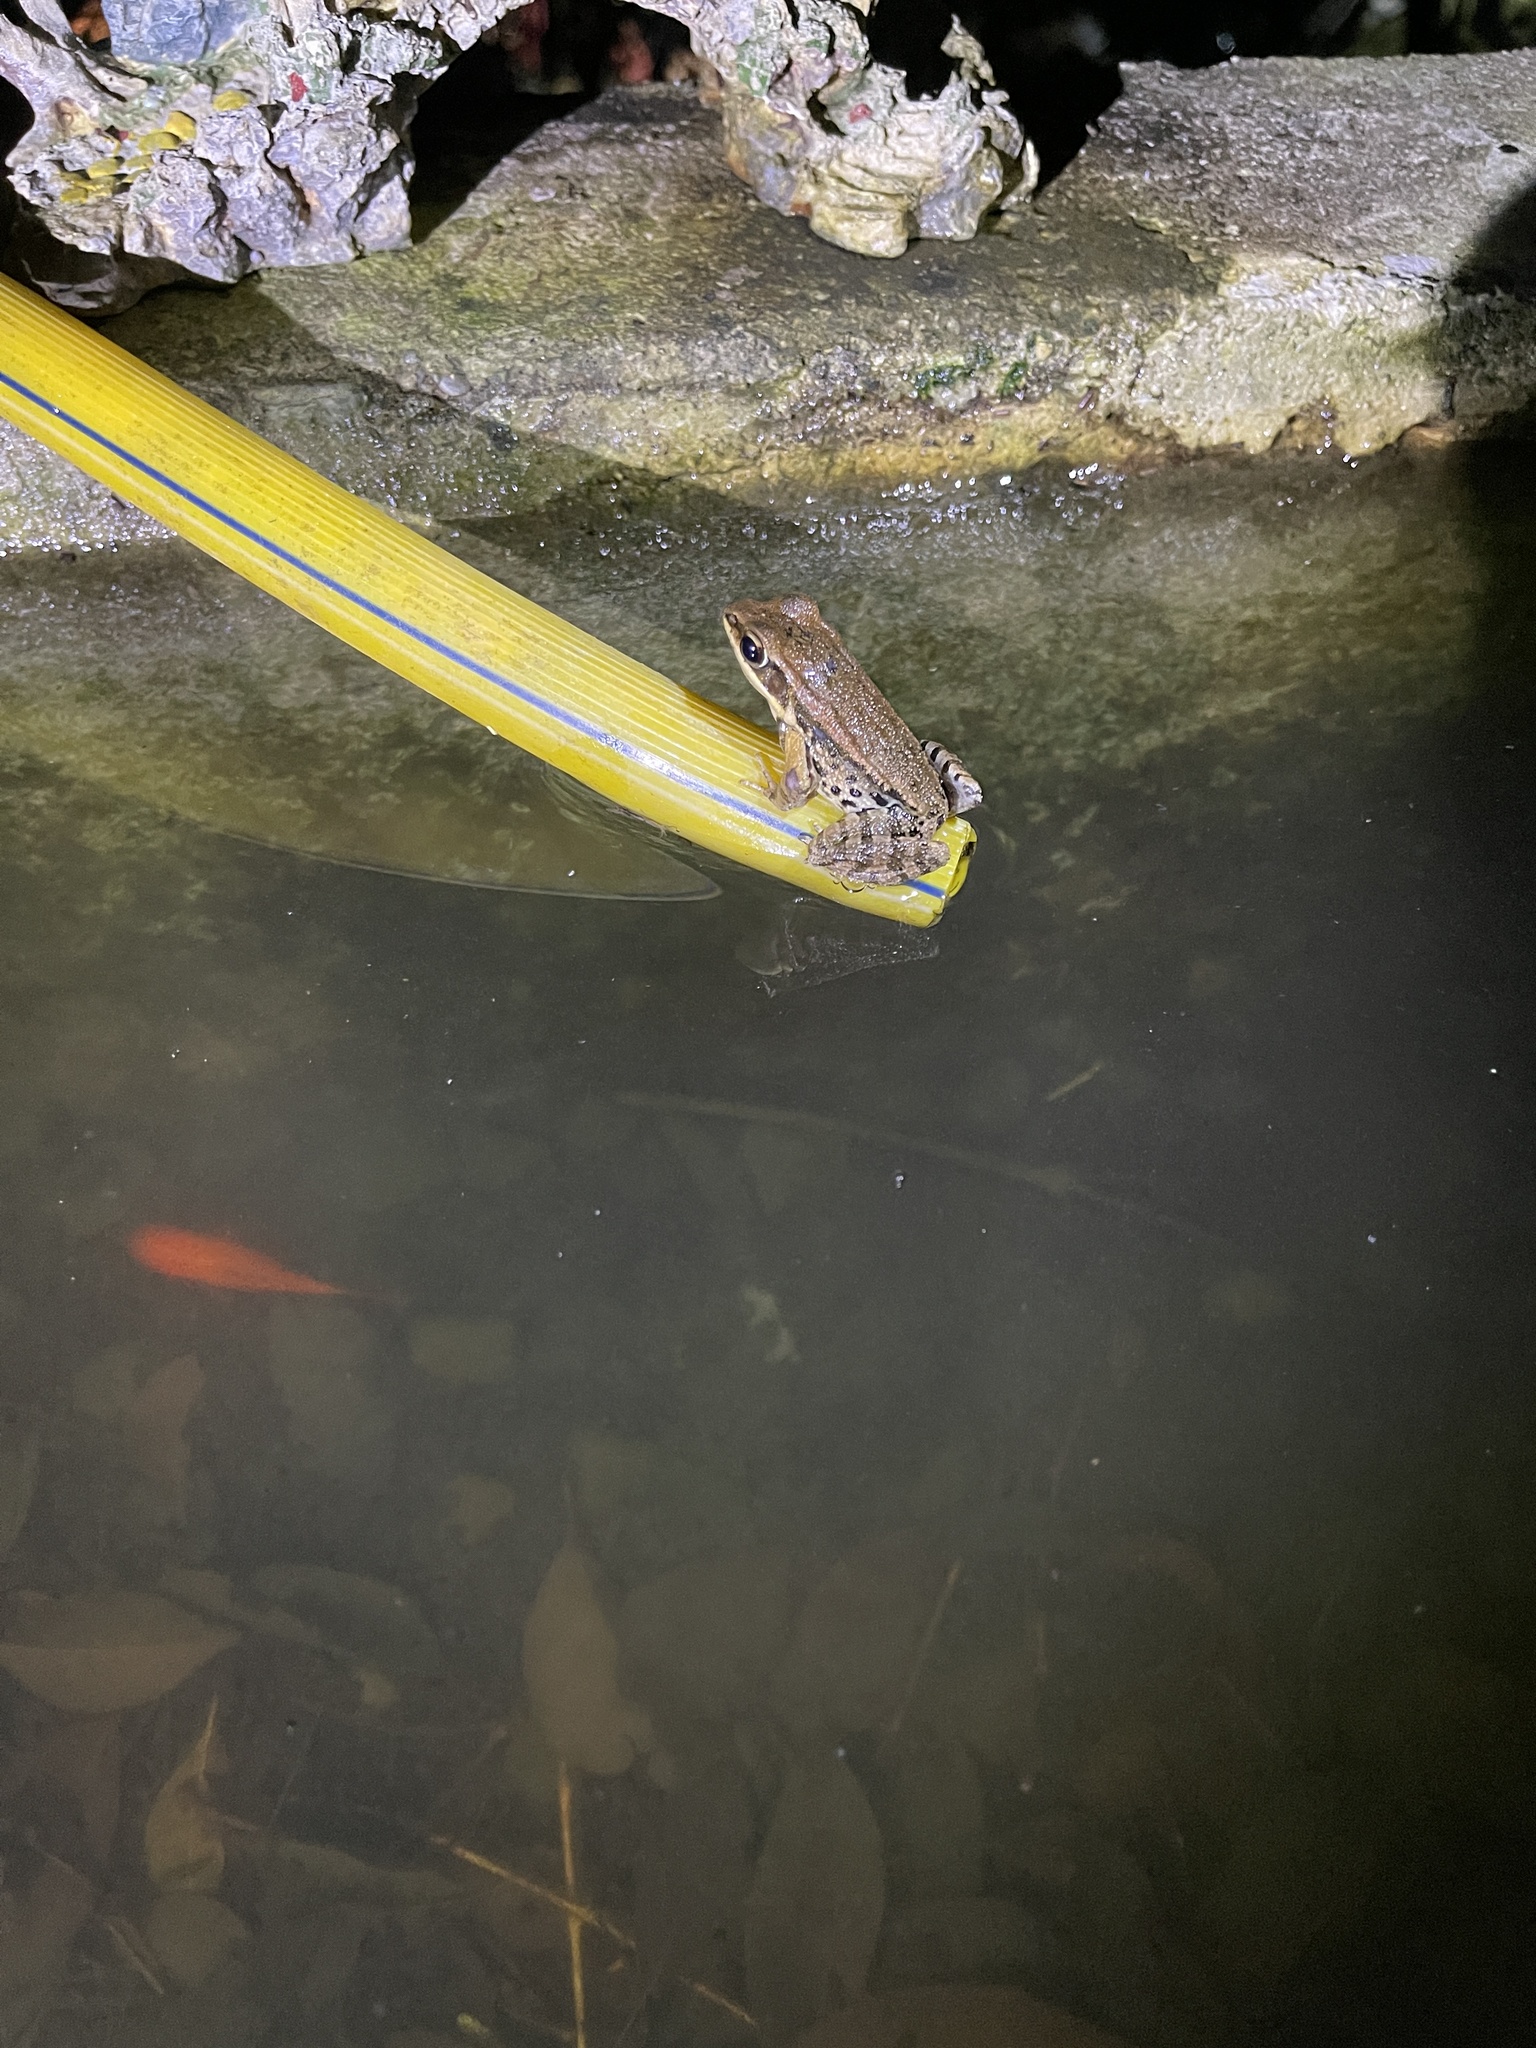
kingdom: Animalia
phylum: Chordata
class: Amphibia
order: Anura
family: Ranidae
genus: Hylarana
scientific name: Hylarana latouchii
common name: Broad-folded frog
